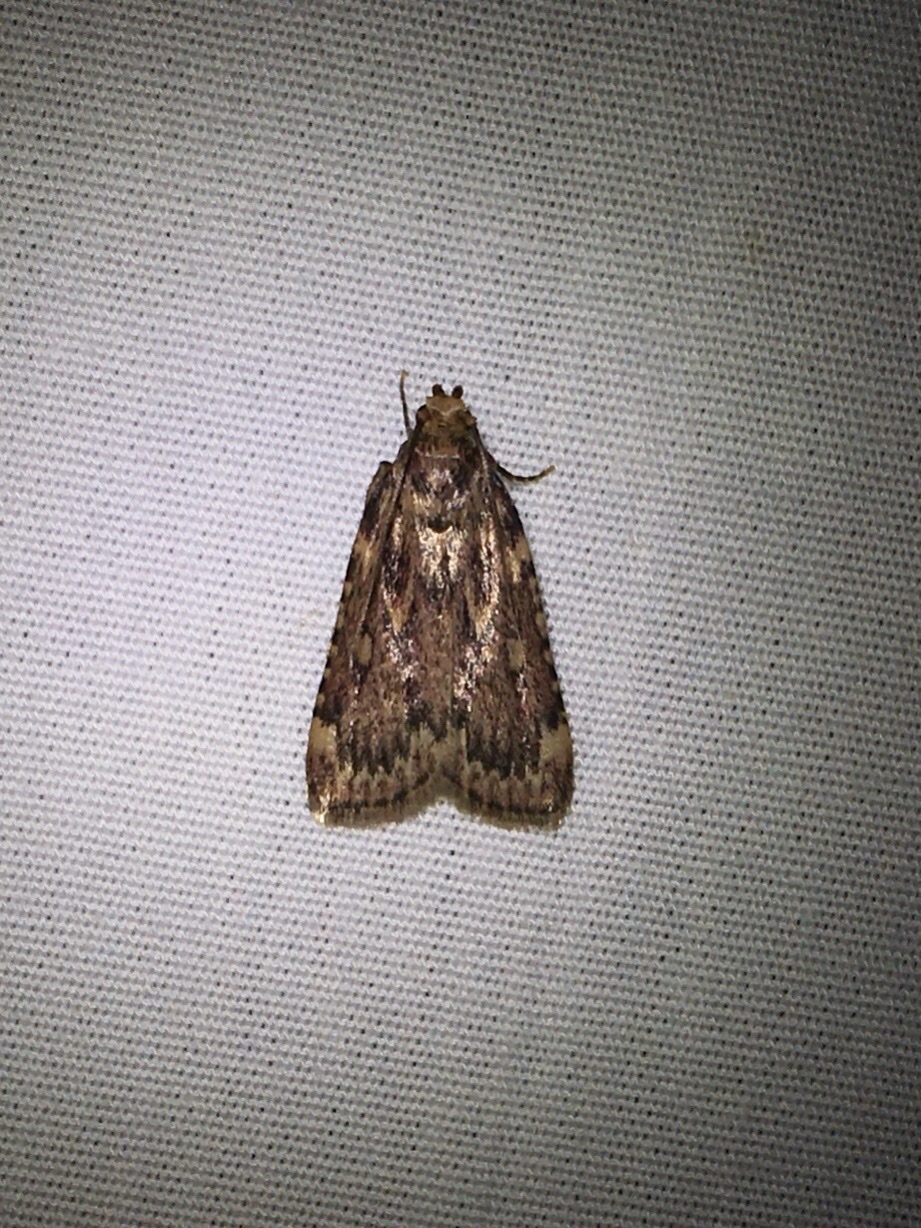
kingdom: Animalia
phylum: Arthropoda
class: Insecta
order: Lepidoptera
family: Pyralidae
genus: Aglossa
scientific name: Aglossa cuprina
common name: Grease moth
